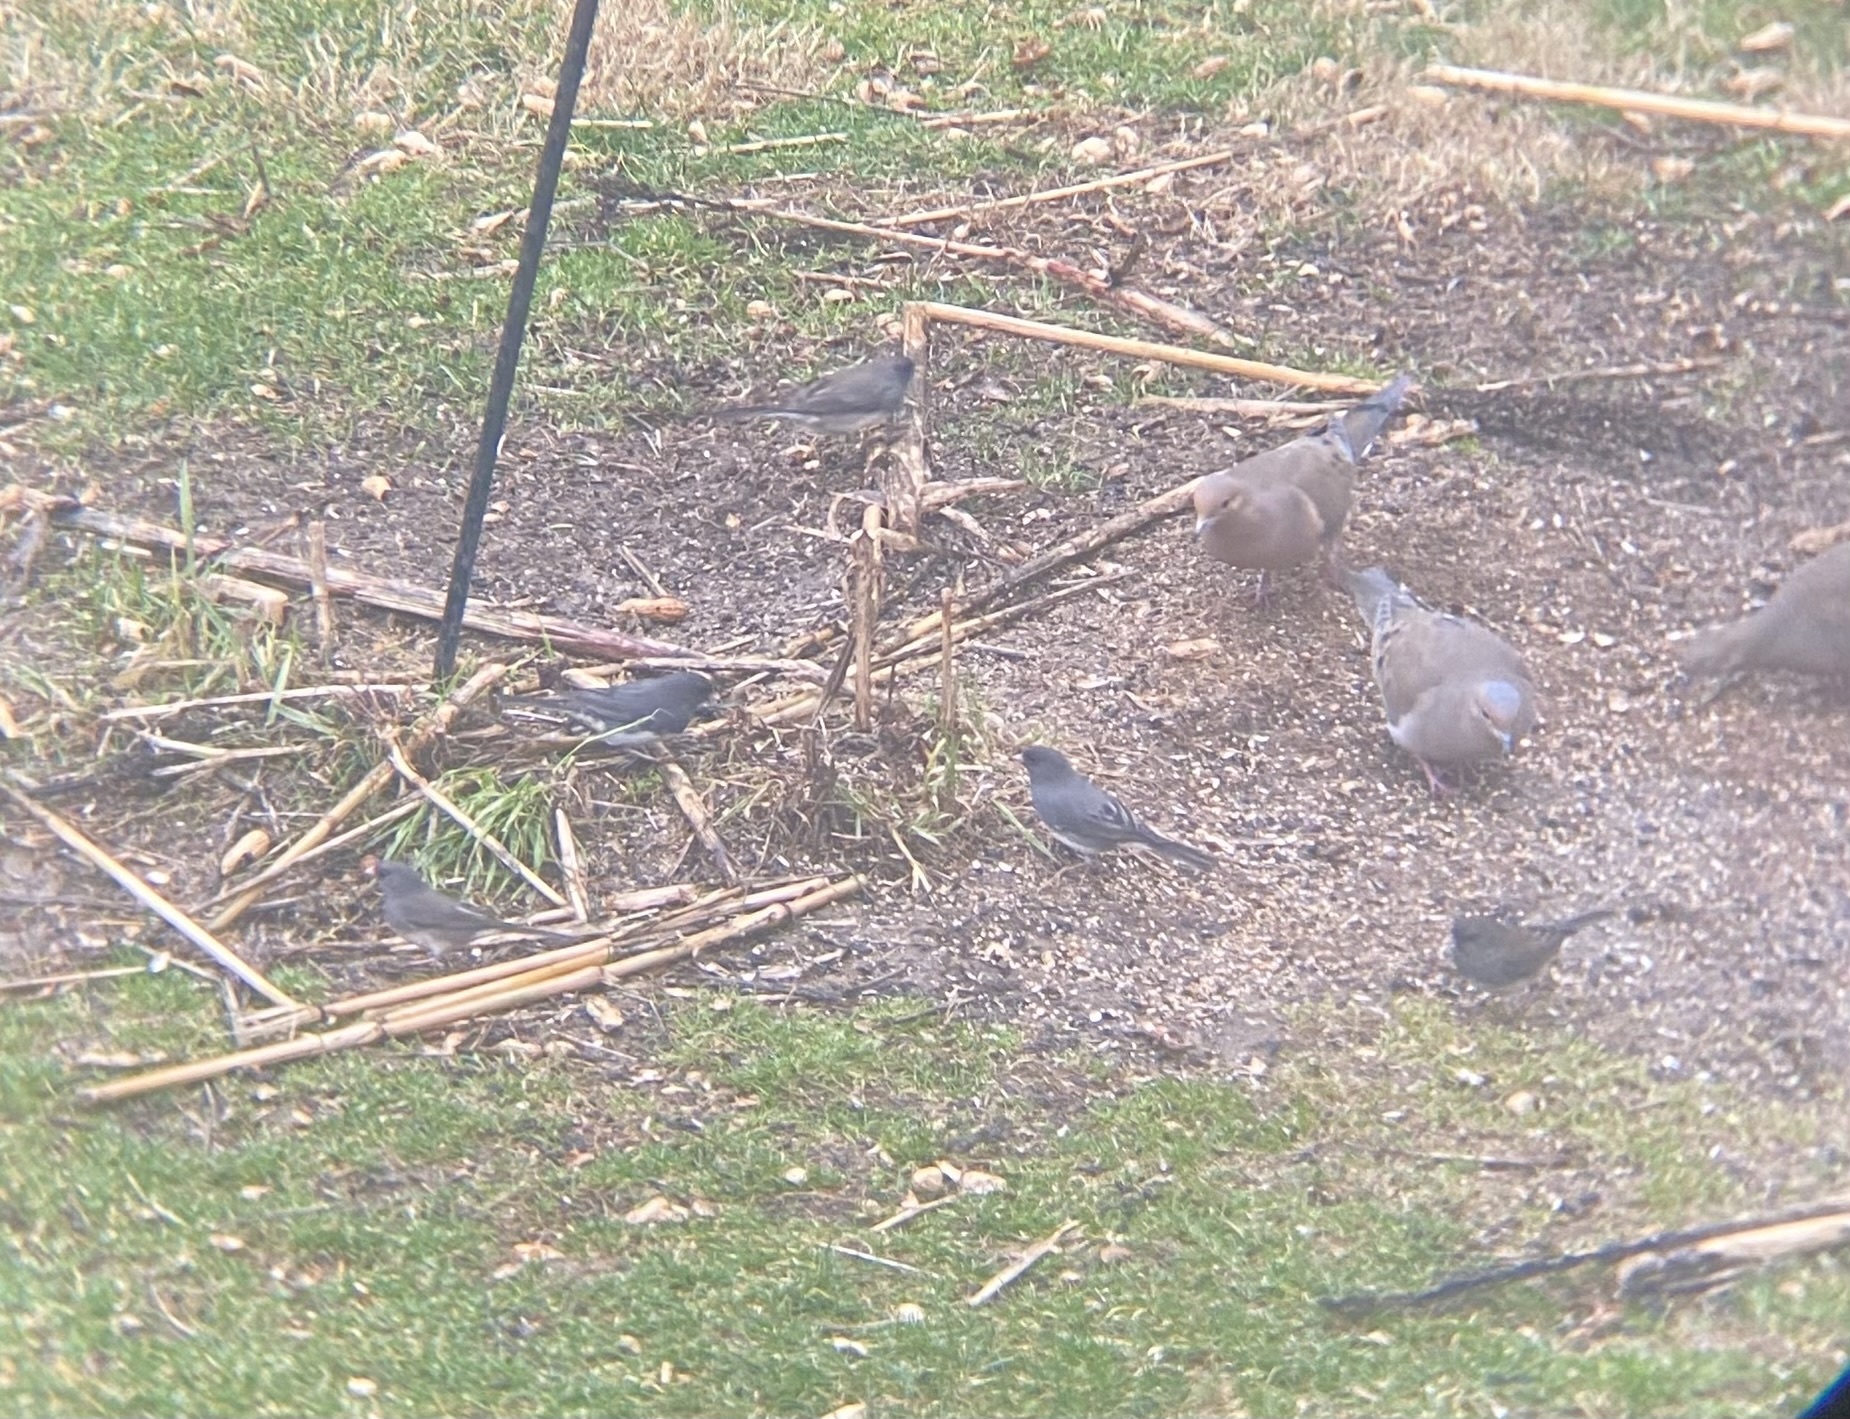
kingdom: Animalia
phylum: Chordata
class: Aves
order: Passeriformes
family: Passerellidae
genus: Junco
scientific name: Junco hyemalis
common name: Dark-eyed junco
